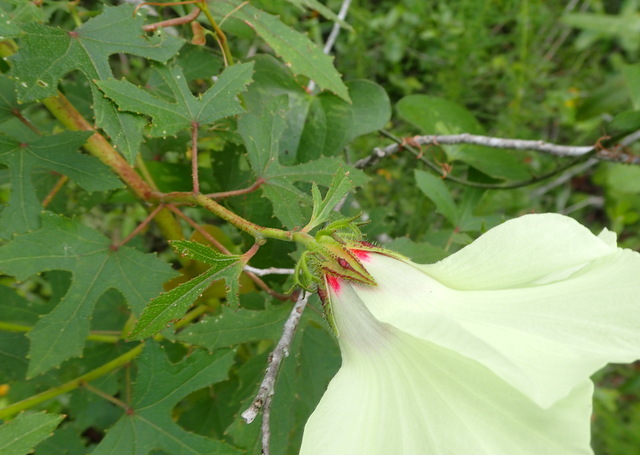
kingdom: Plantae
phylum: Tracheophyta
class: Magnoliopsida
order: Malvales
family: Malvaceae
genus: Hibiscus
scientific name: Hibiscus aculeatus
